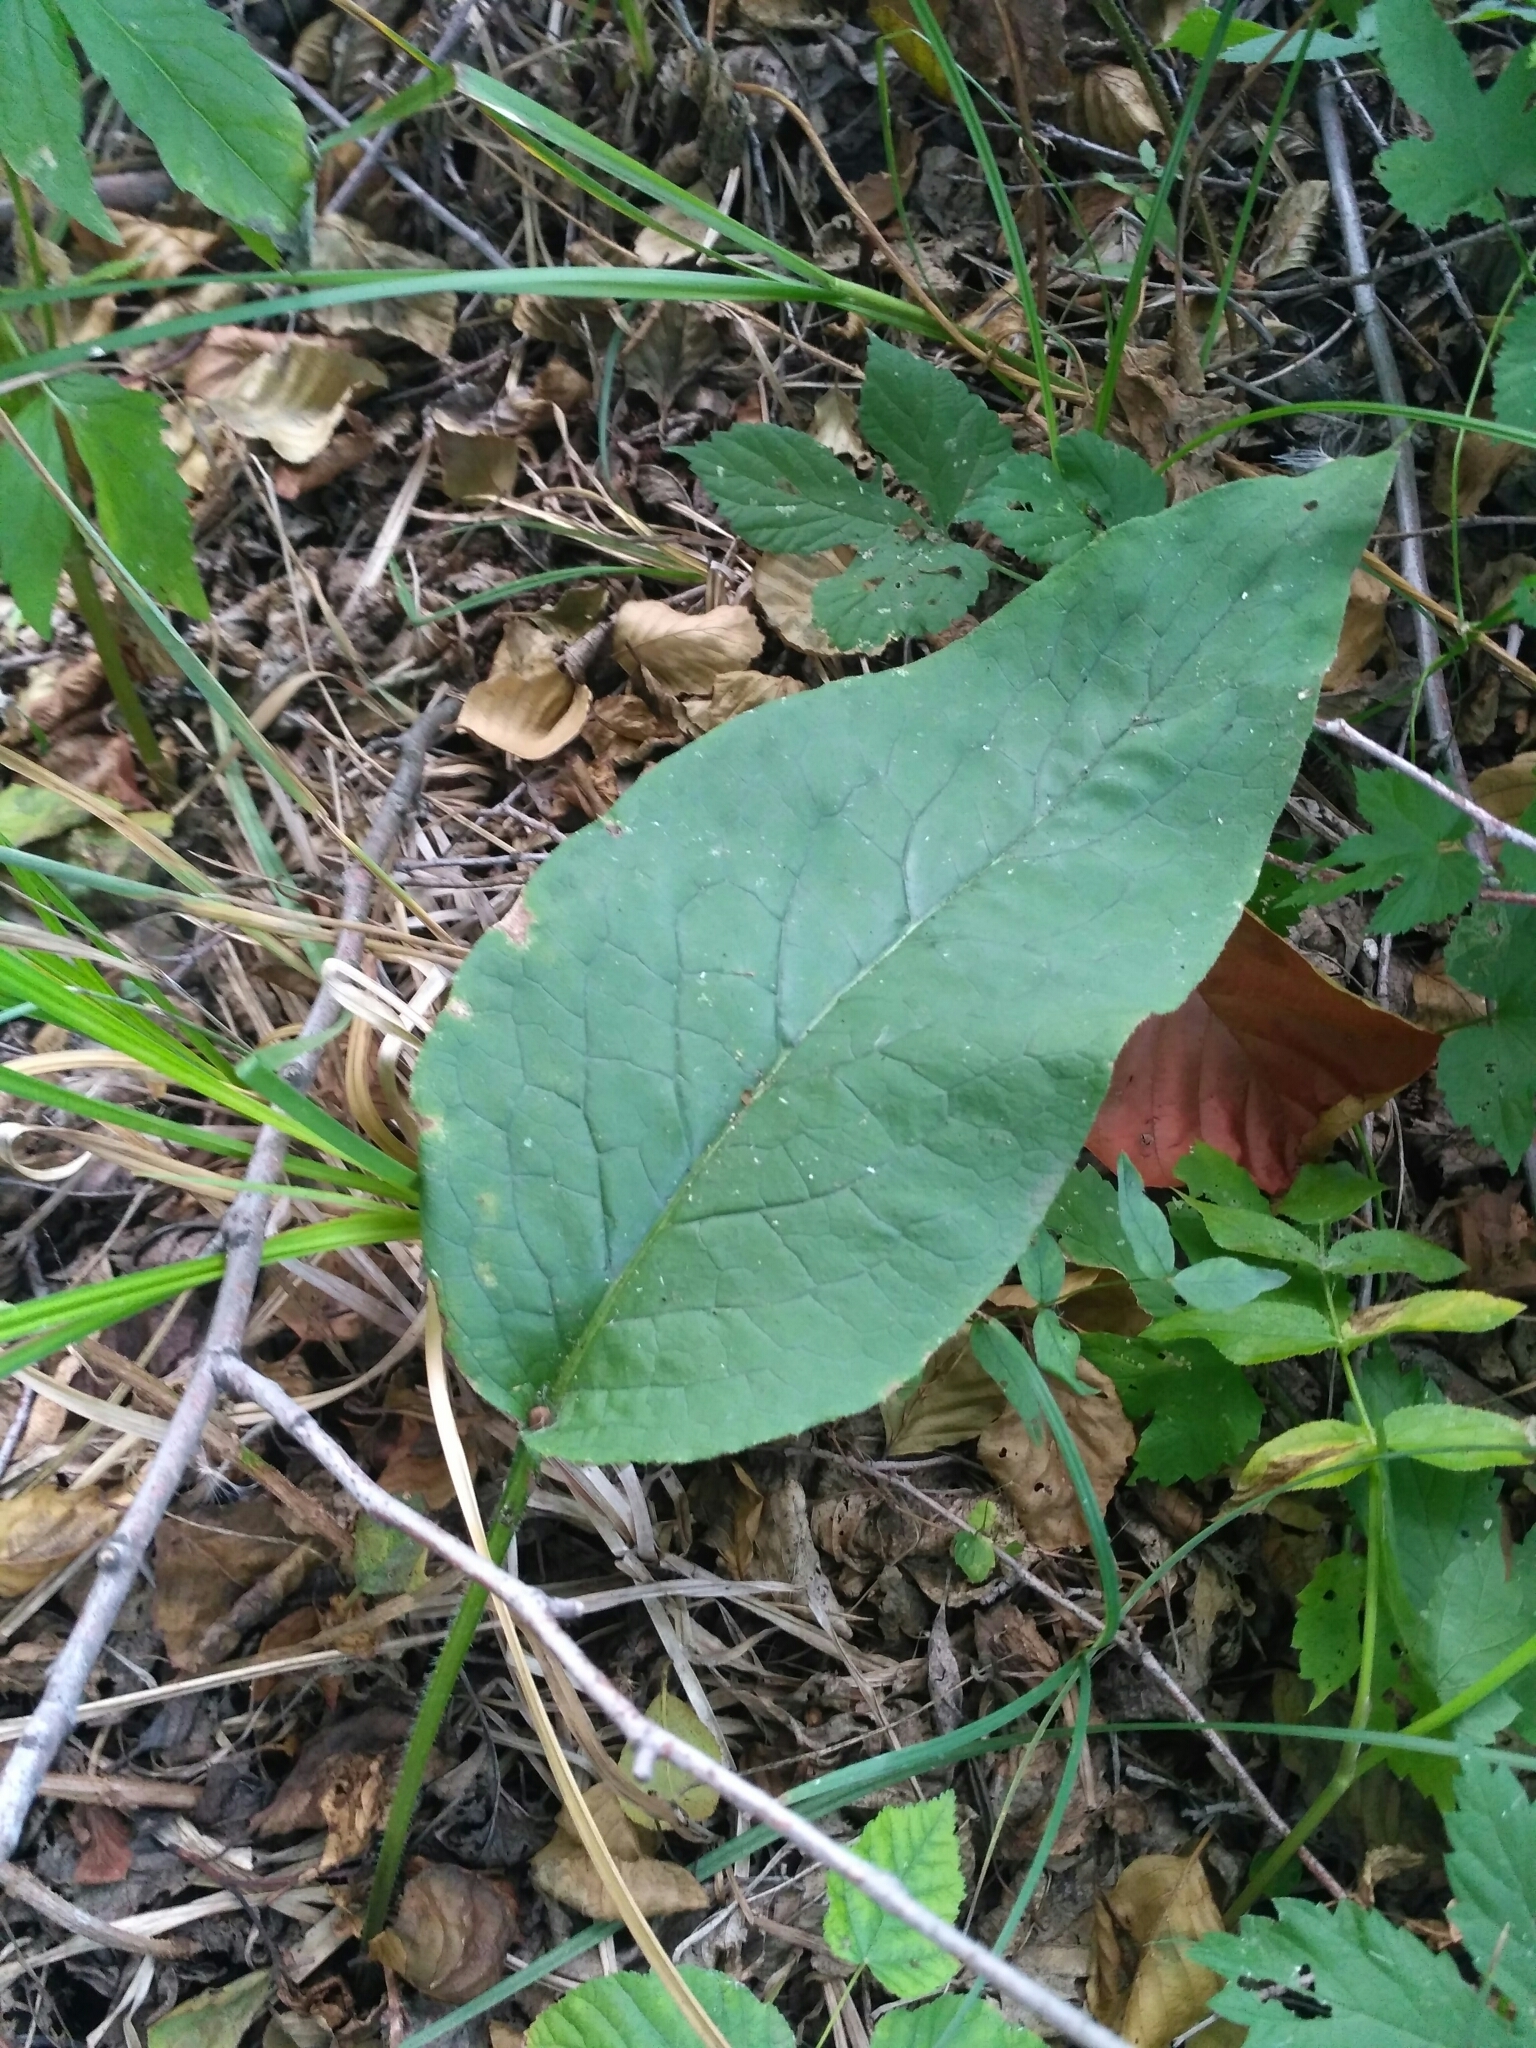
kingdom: Plantae
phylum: Tracheophyta
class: Magnoliopsida
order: Boraginales
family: Boraginaceae
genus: Symphytum
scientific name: Symphytum officinale
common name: Common comfrey
